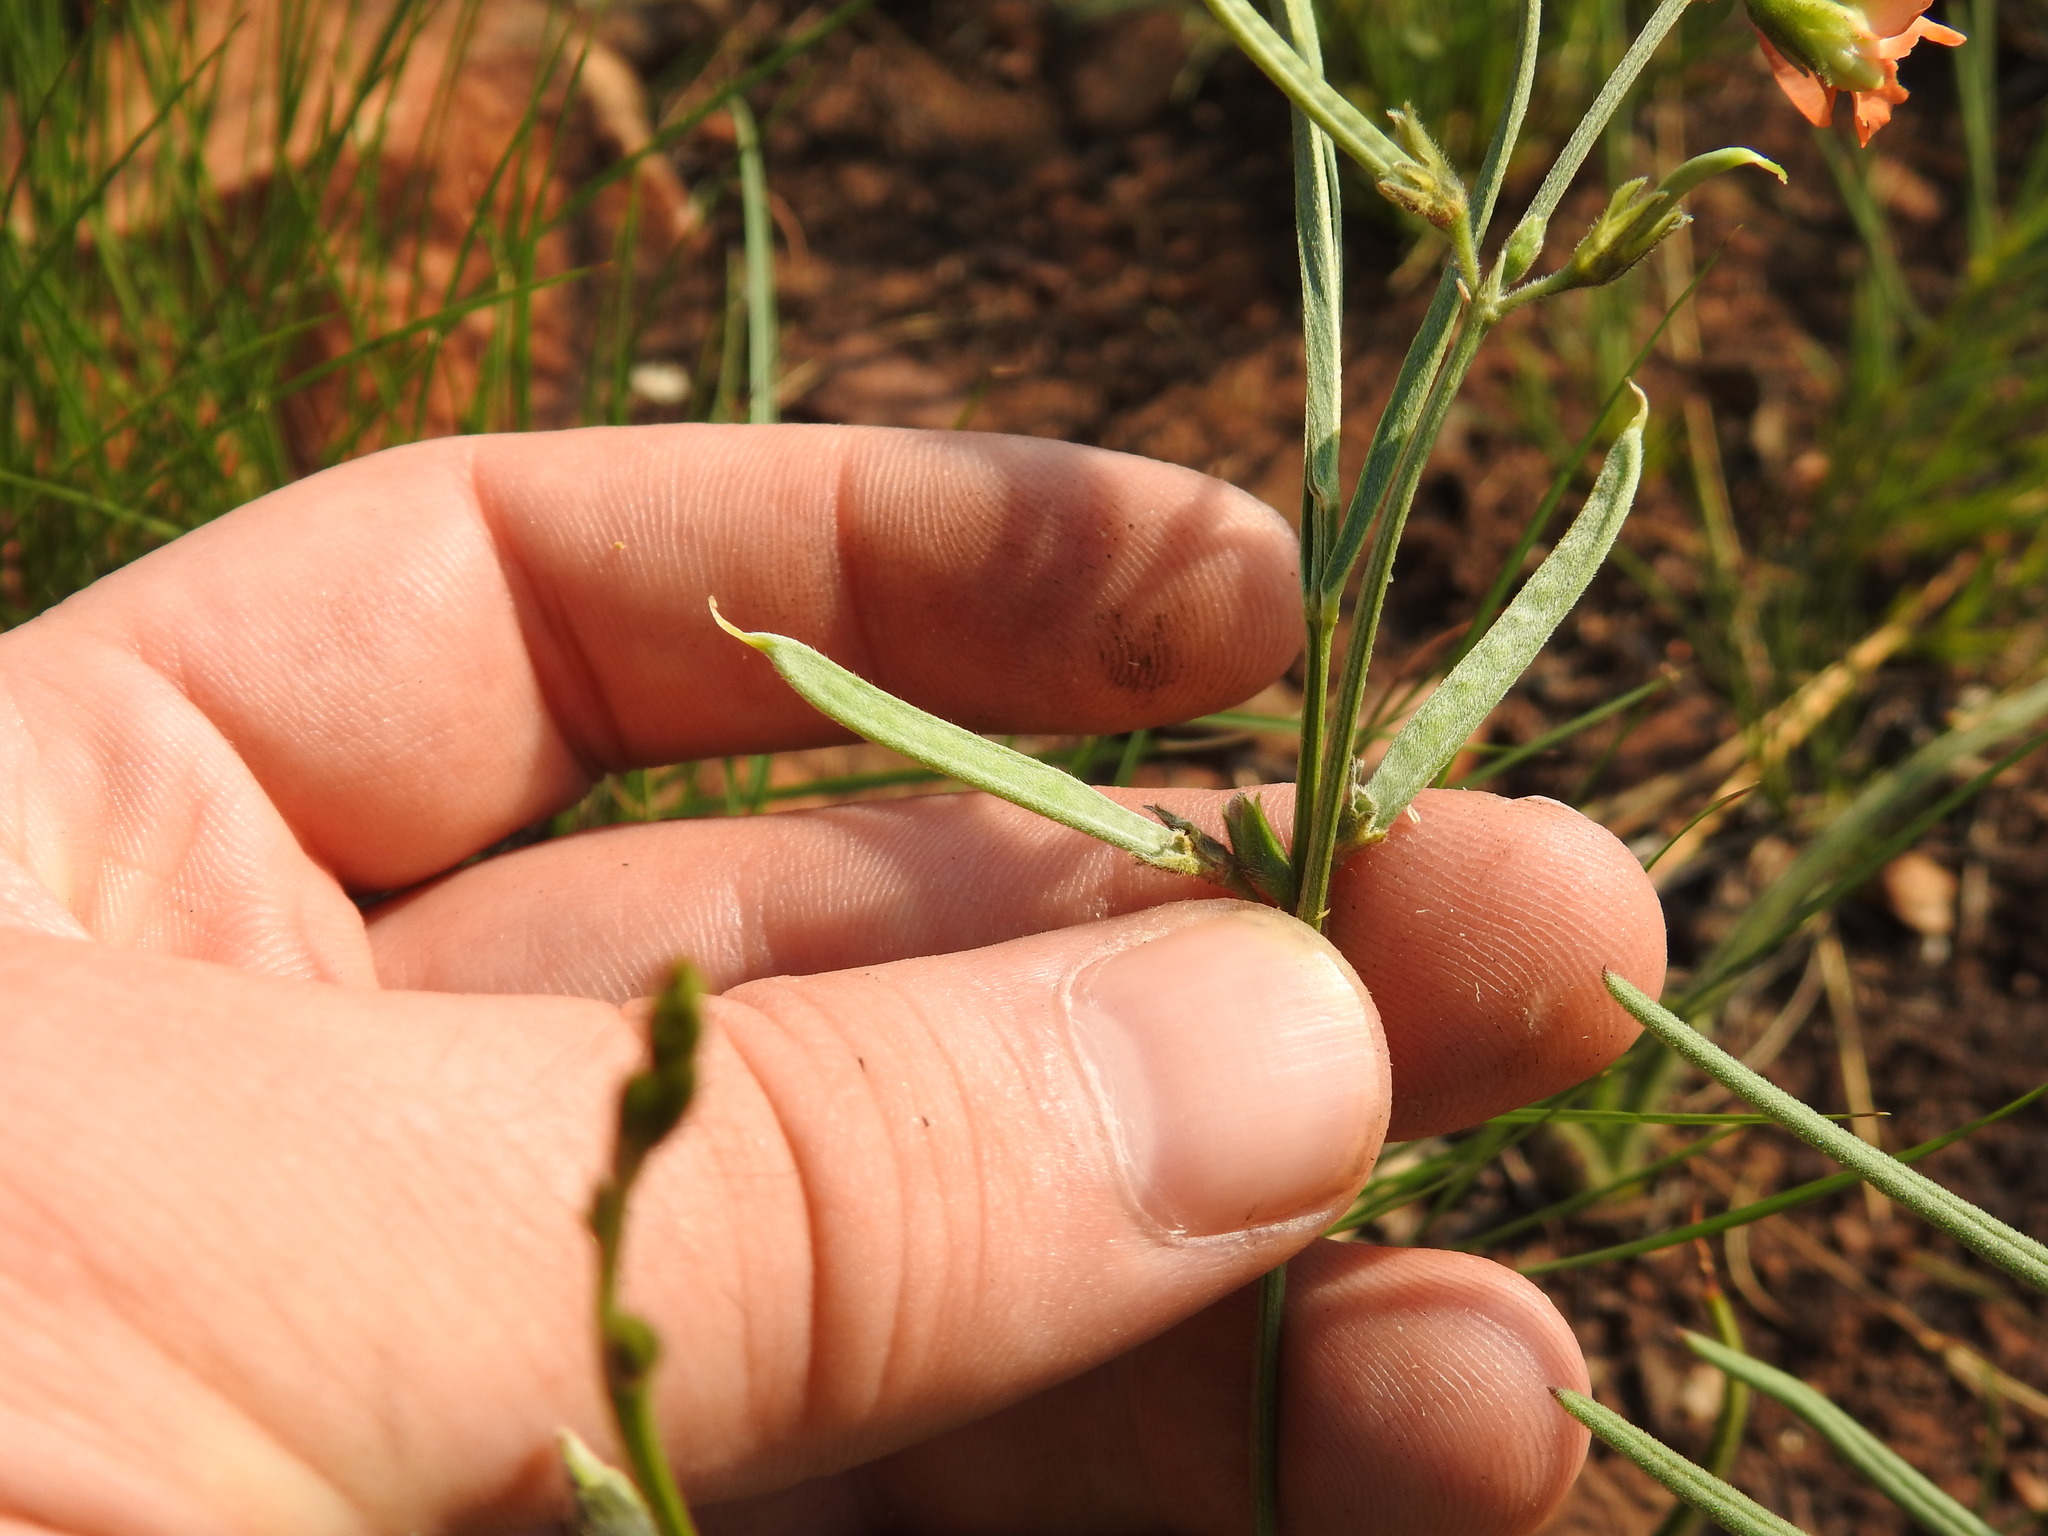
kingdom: Plantae
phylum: Tracheophyta
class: Magnoliopsida
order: Fabales
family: Fabaceae
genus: Tephrosia
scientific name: Tephrosia elongata
